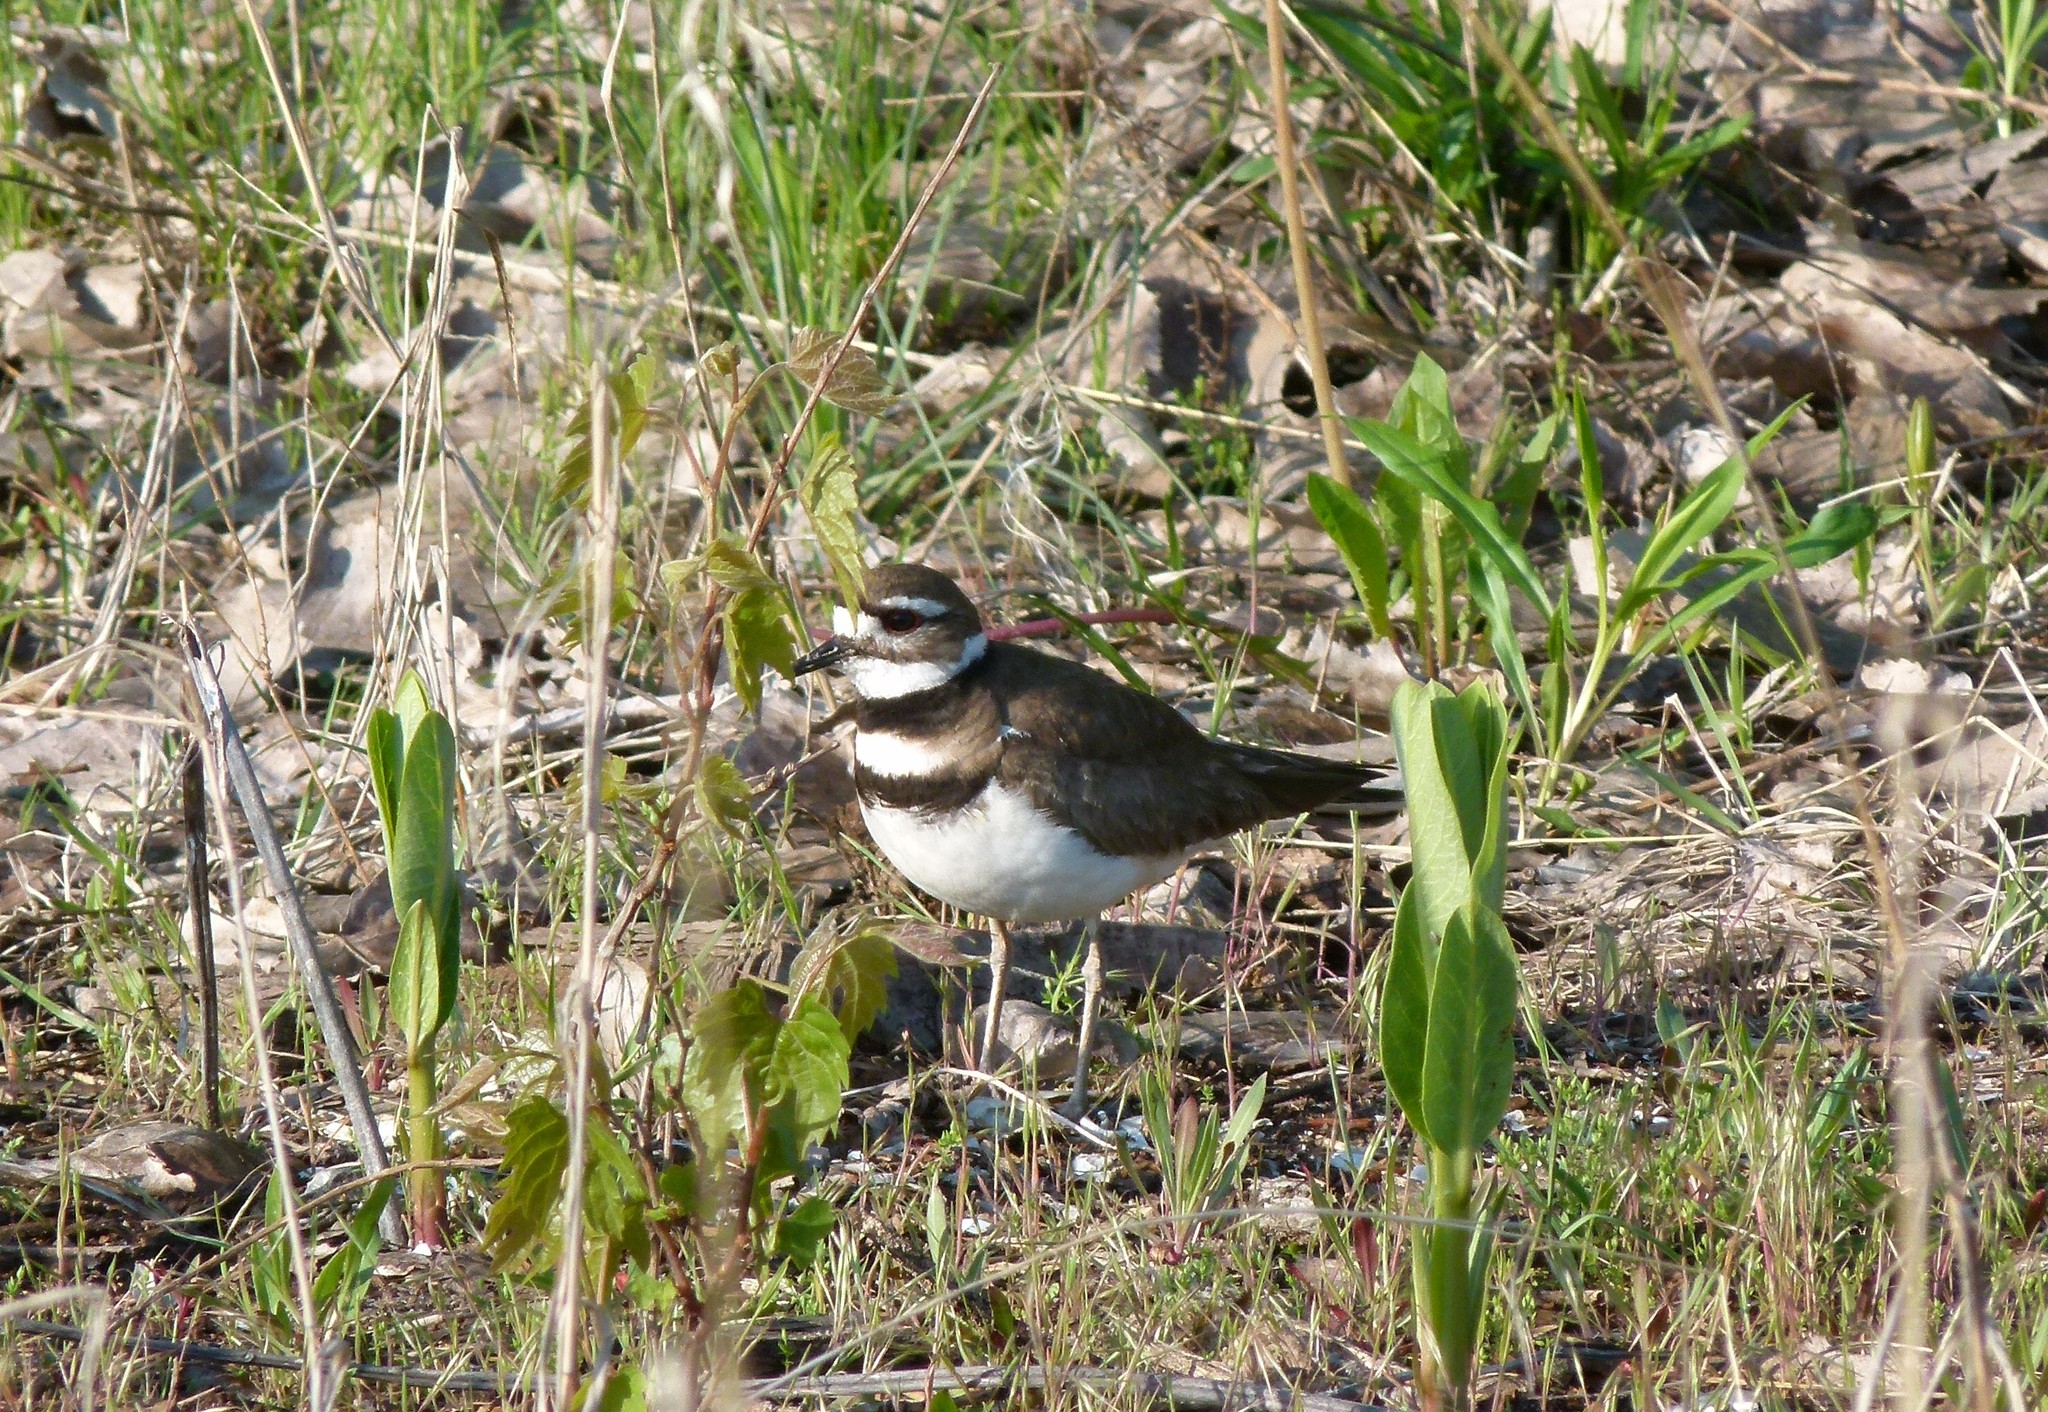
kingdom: Animalia
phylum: Chordata
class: Aves
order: Charadriiformes
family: Charadriidae
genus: Charadrius
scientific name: Charadrius vociferus
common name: Killdeer
